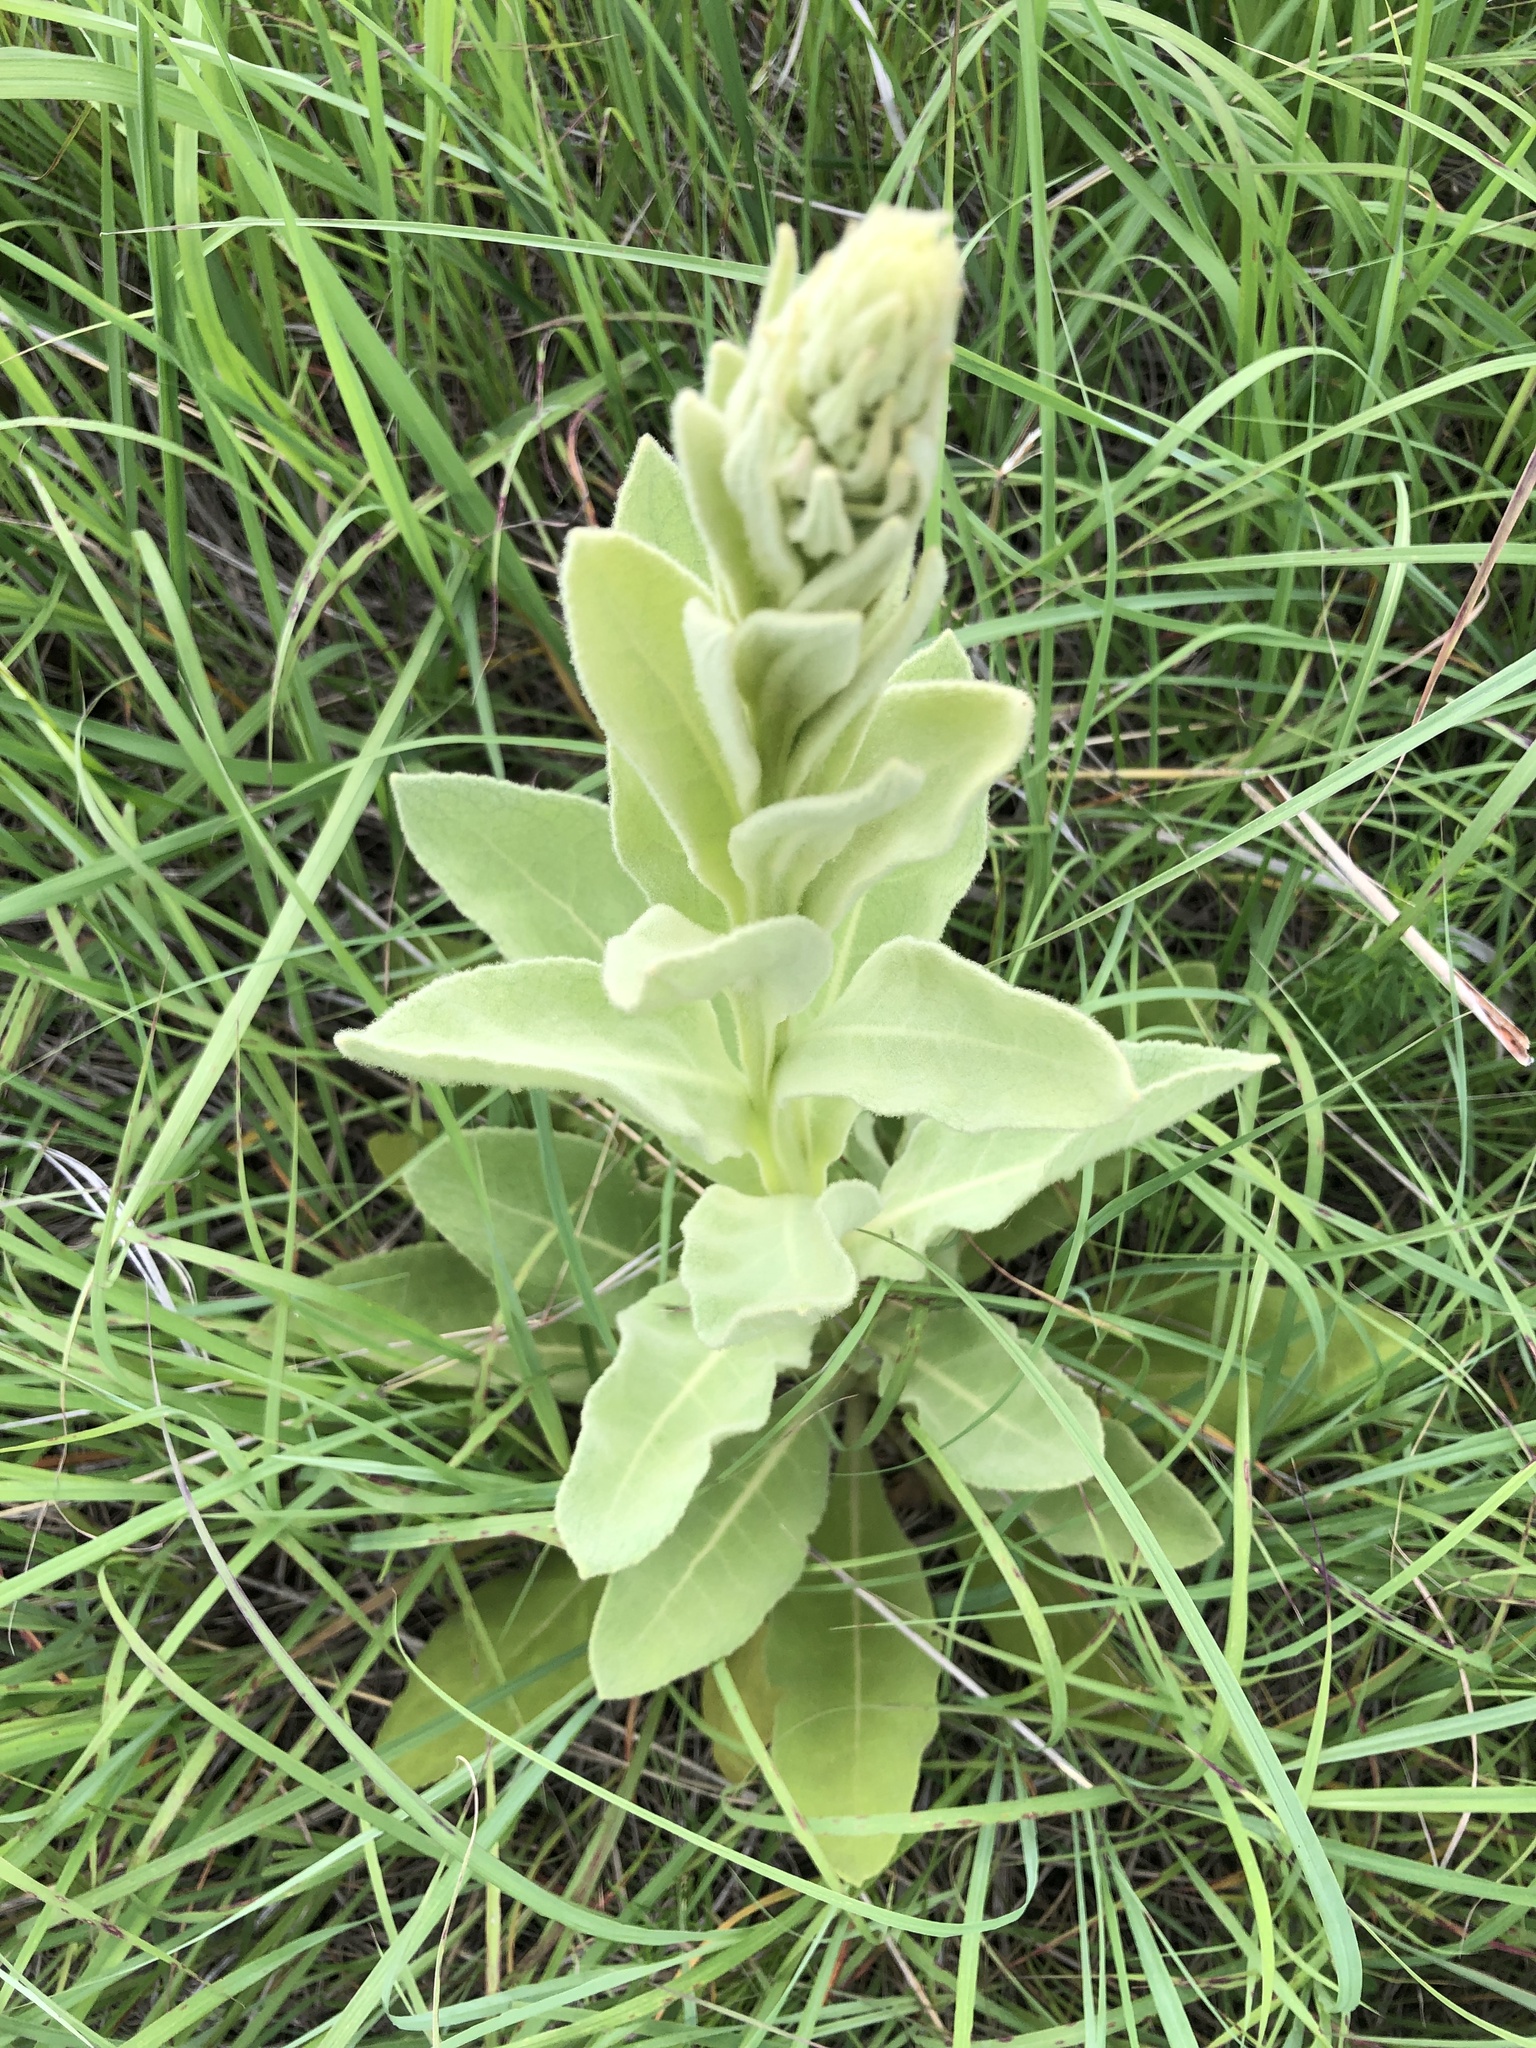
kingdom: Plantae
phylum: Tracheophyta
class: Magnoliopsida
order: Lamiales
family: Scrophulariaceae
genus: Verbascum
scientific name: Verbascum thapsus
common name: Common mullein
